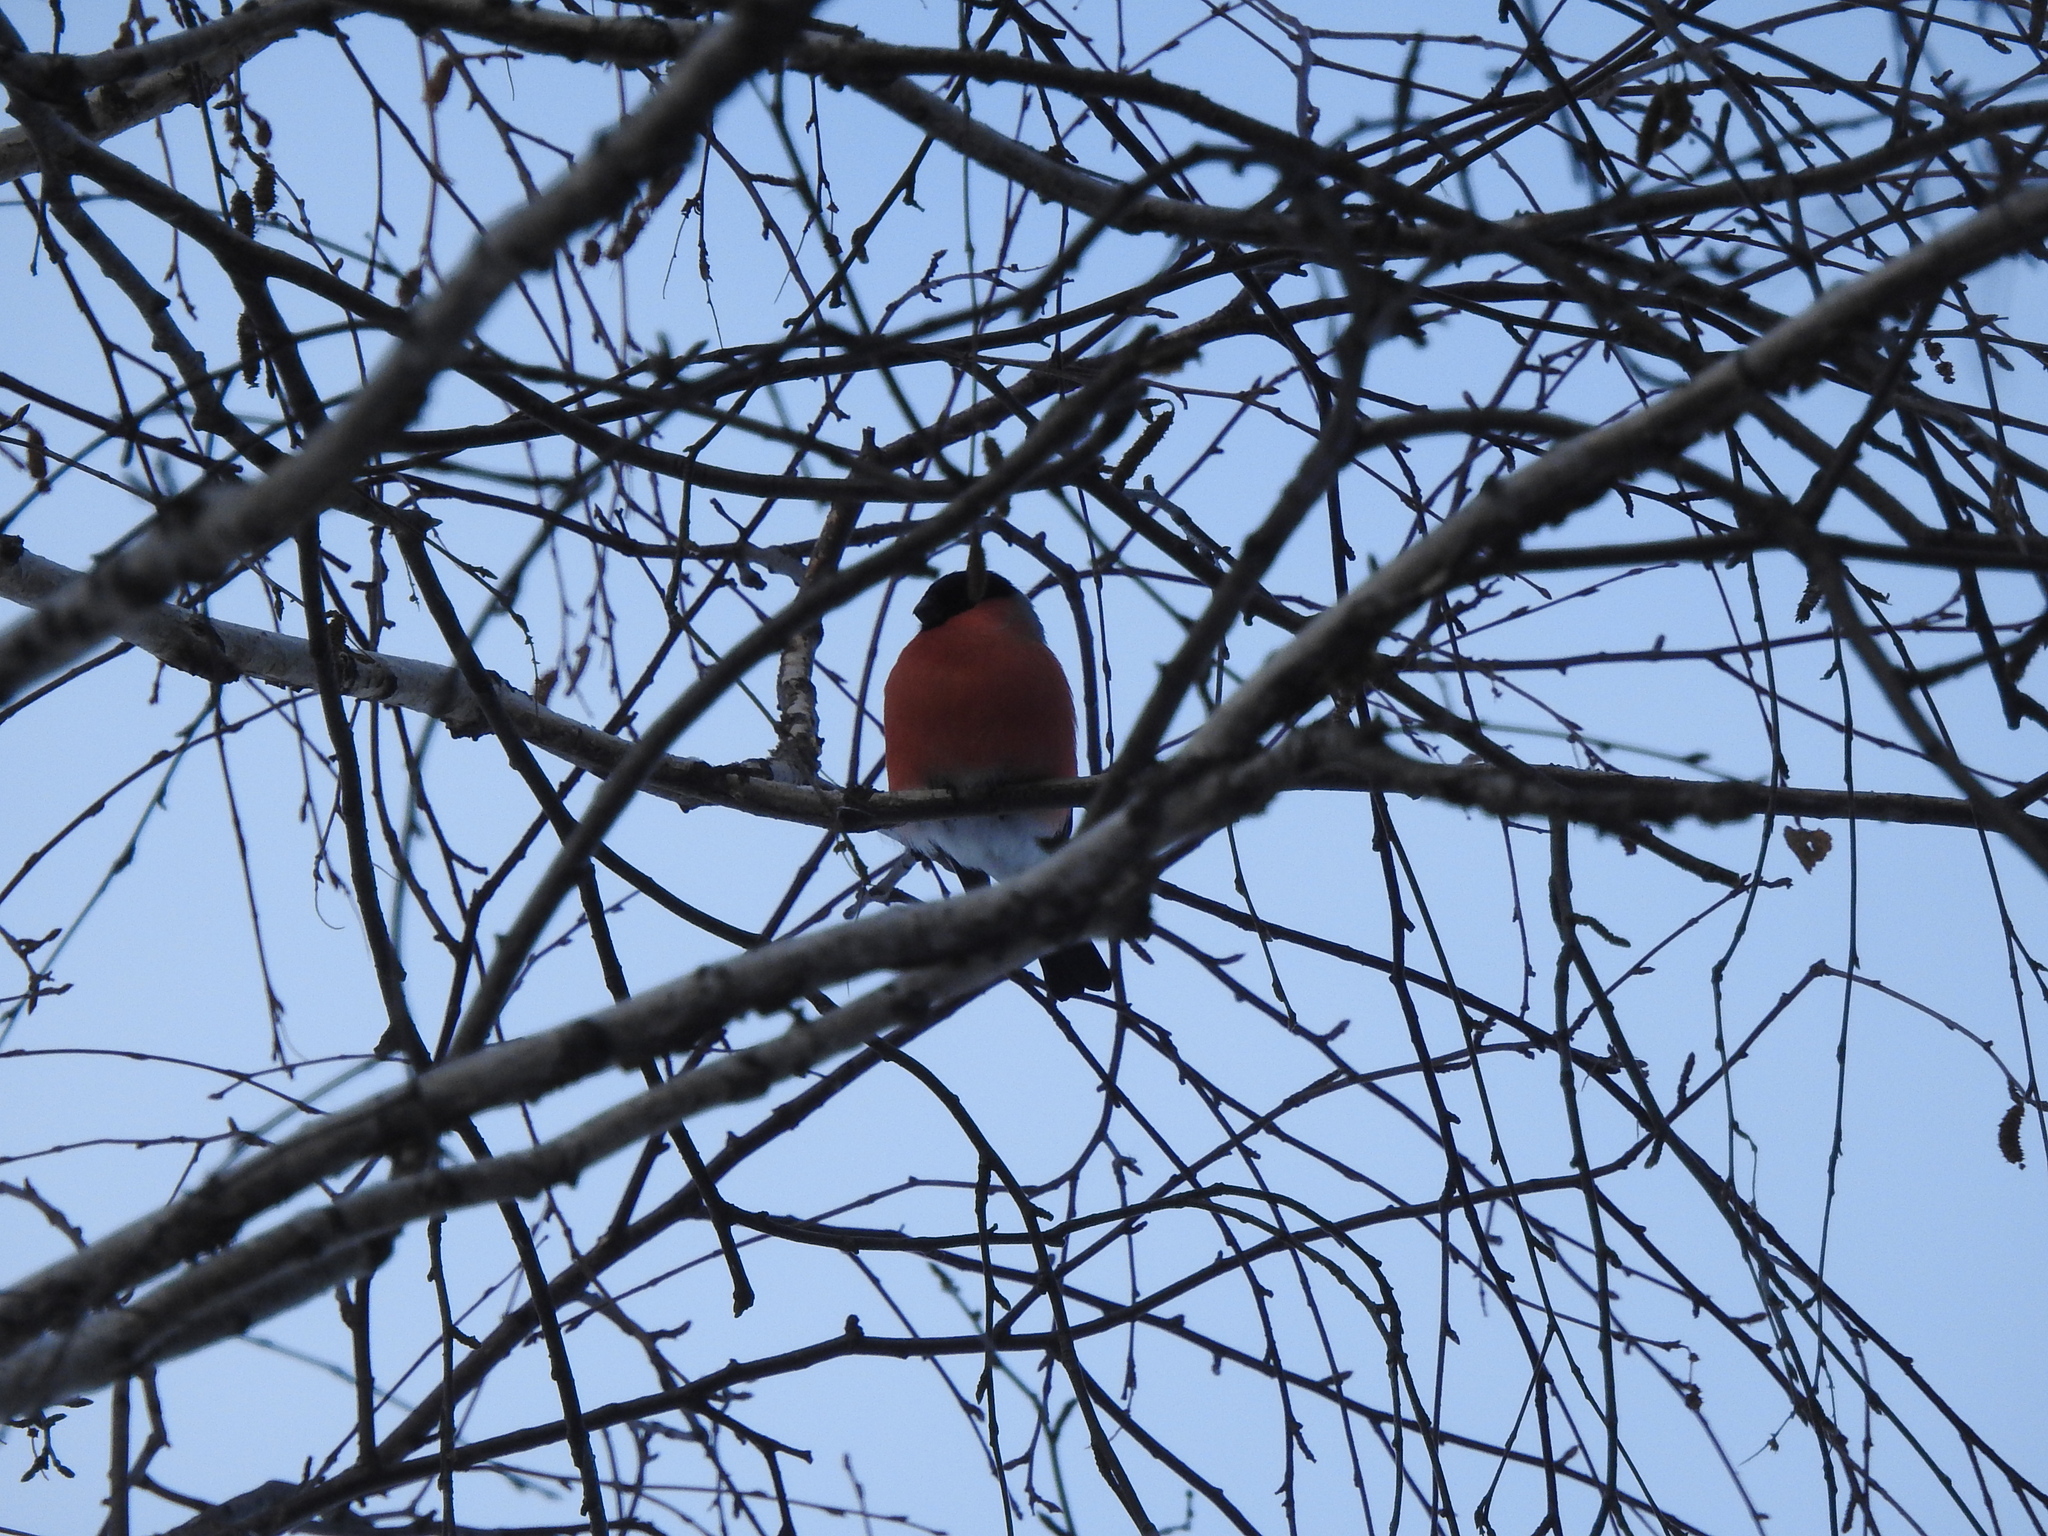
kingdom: Animalia
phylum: Chordata
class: Aves
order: Passeriformes
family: Fringillidae
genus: Pyrrhula
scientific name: Pyrrhula pyrrhula
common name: Eurasian bullfinch
